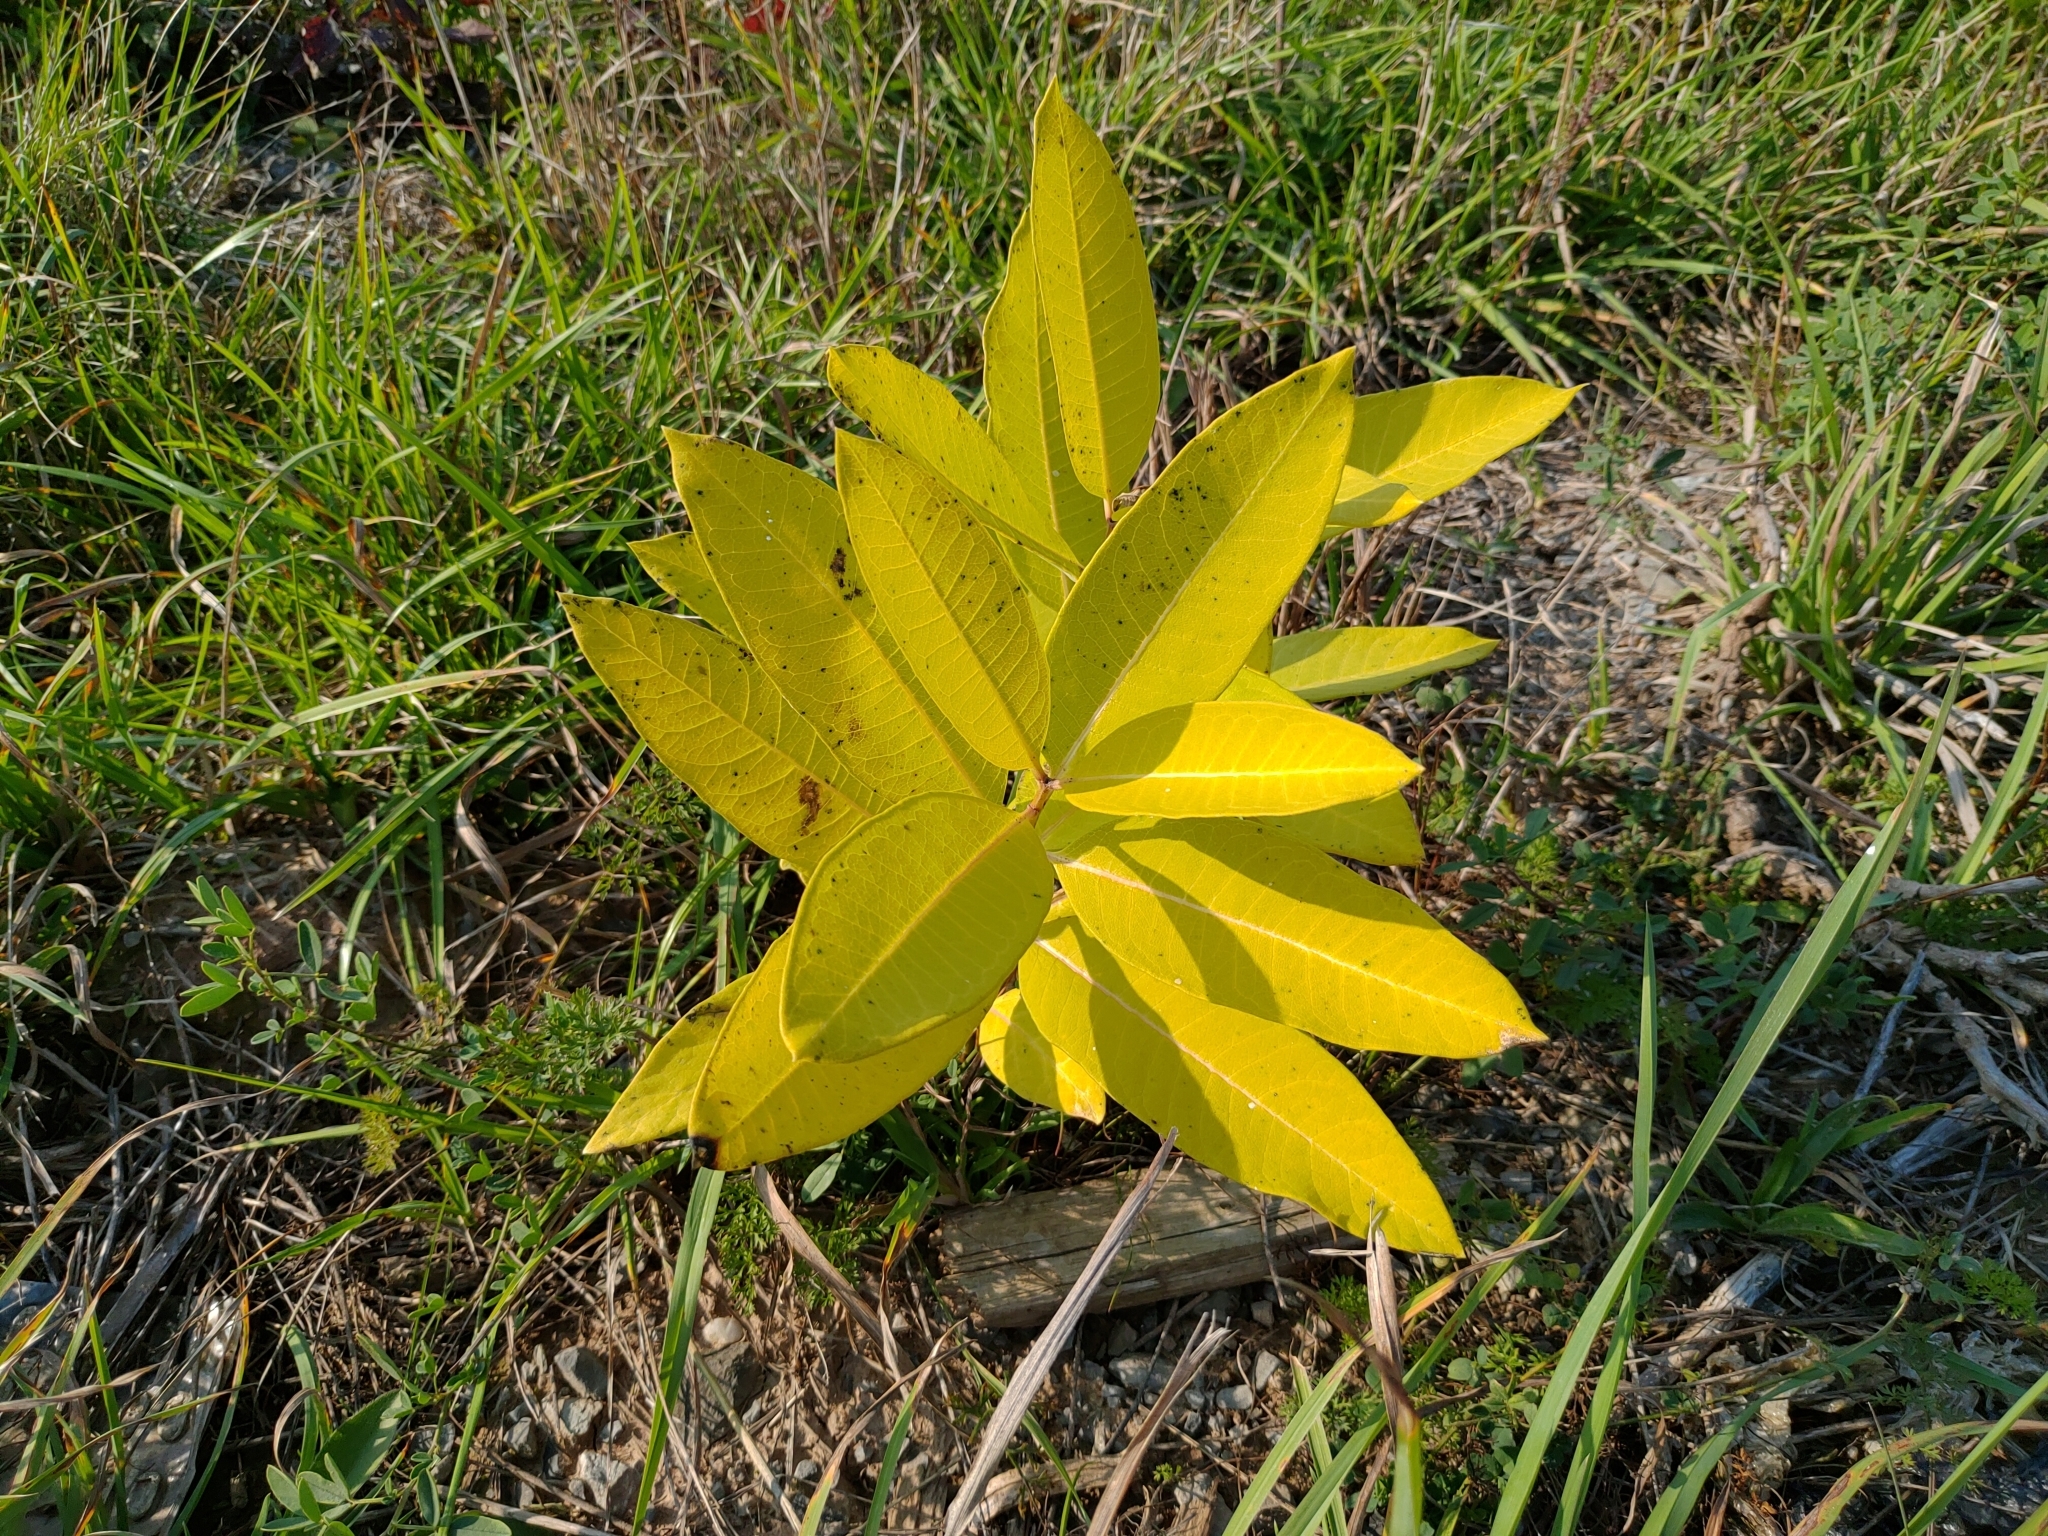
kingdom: Plantae
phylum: Tracheophyta
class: Magnoliopsida
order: Gentianales
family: Apocynaceae
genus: Asclepias
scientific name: Asclepias syriaca
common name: Common milkweed
